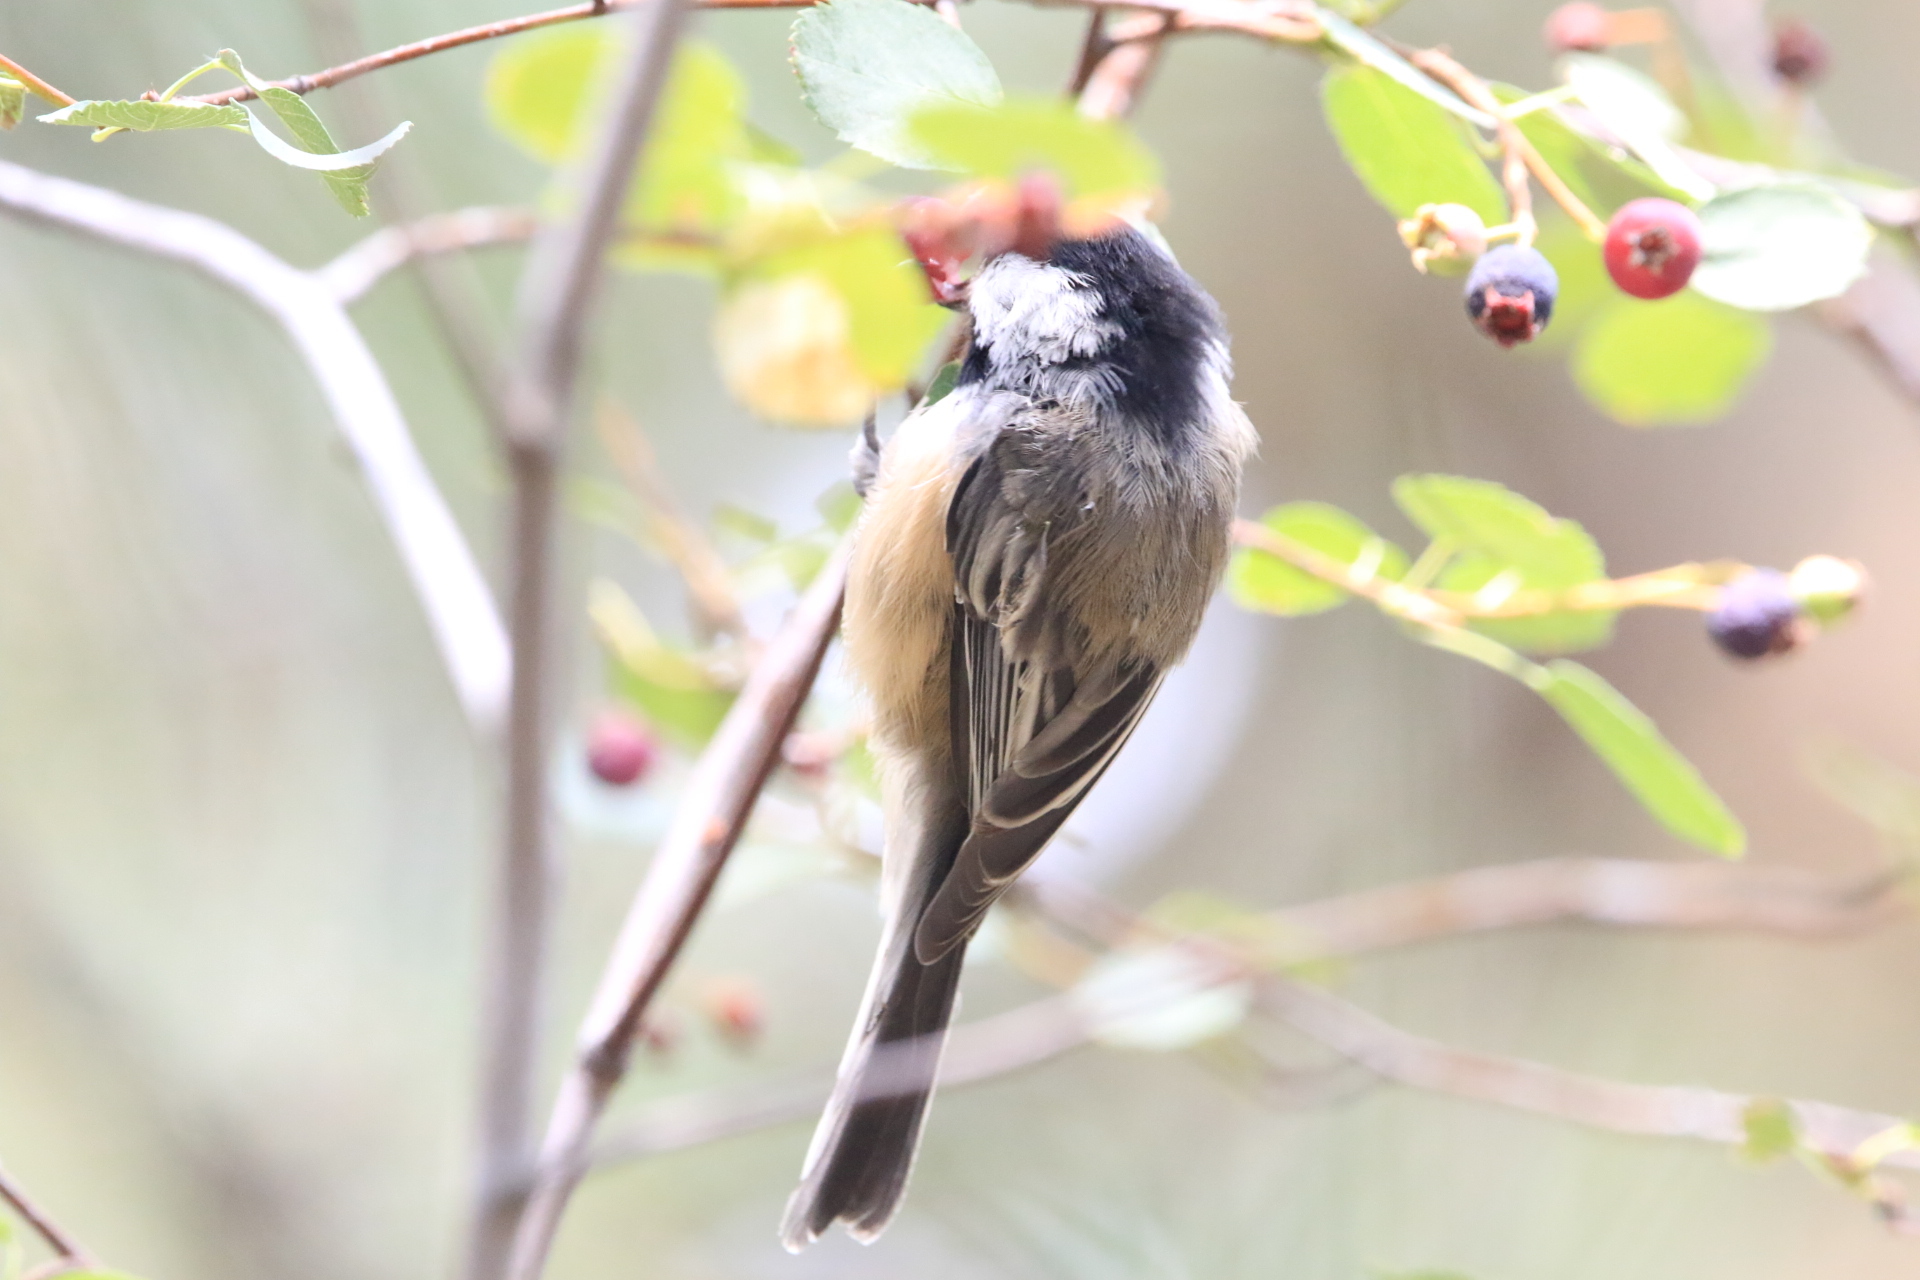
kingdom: Animalia
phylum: Chordata
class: Aves
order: Passeriformes
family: Paridae
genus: Poecile
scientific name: Poecile atricapillus
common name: Black-capped chickadee
